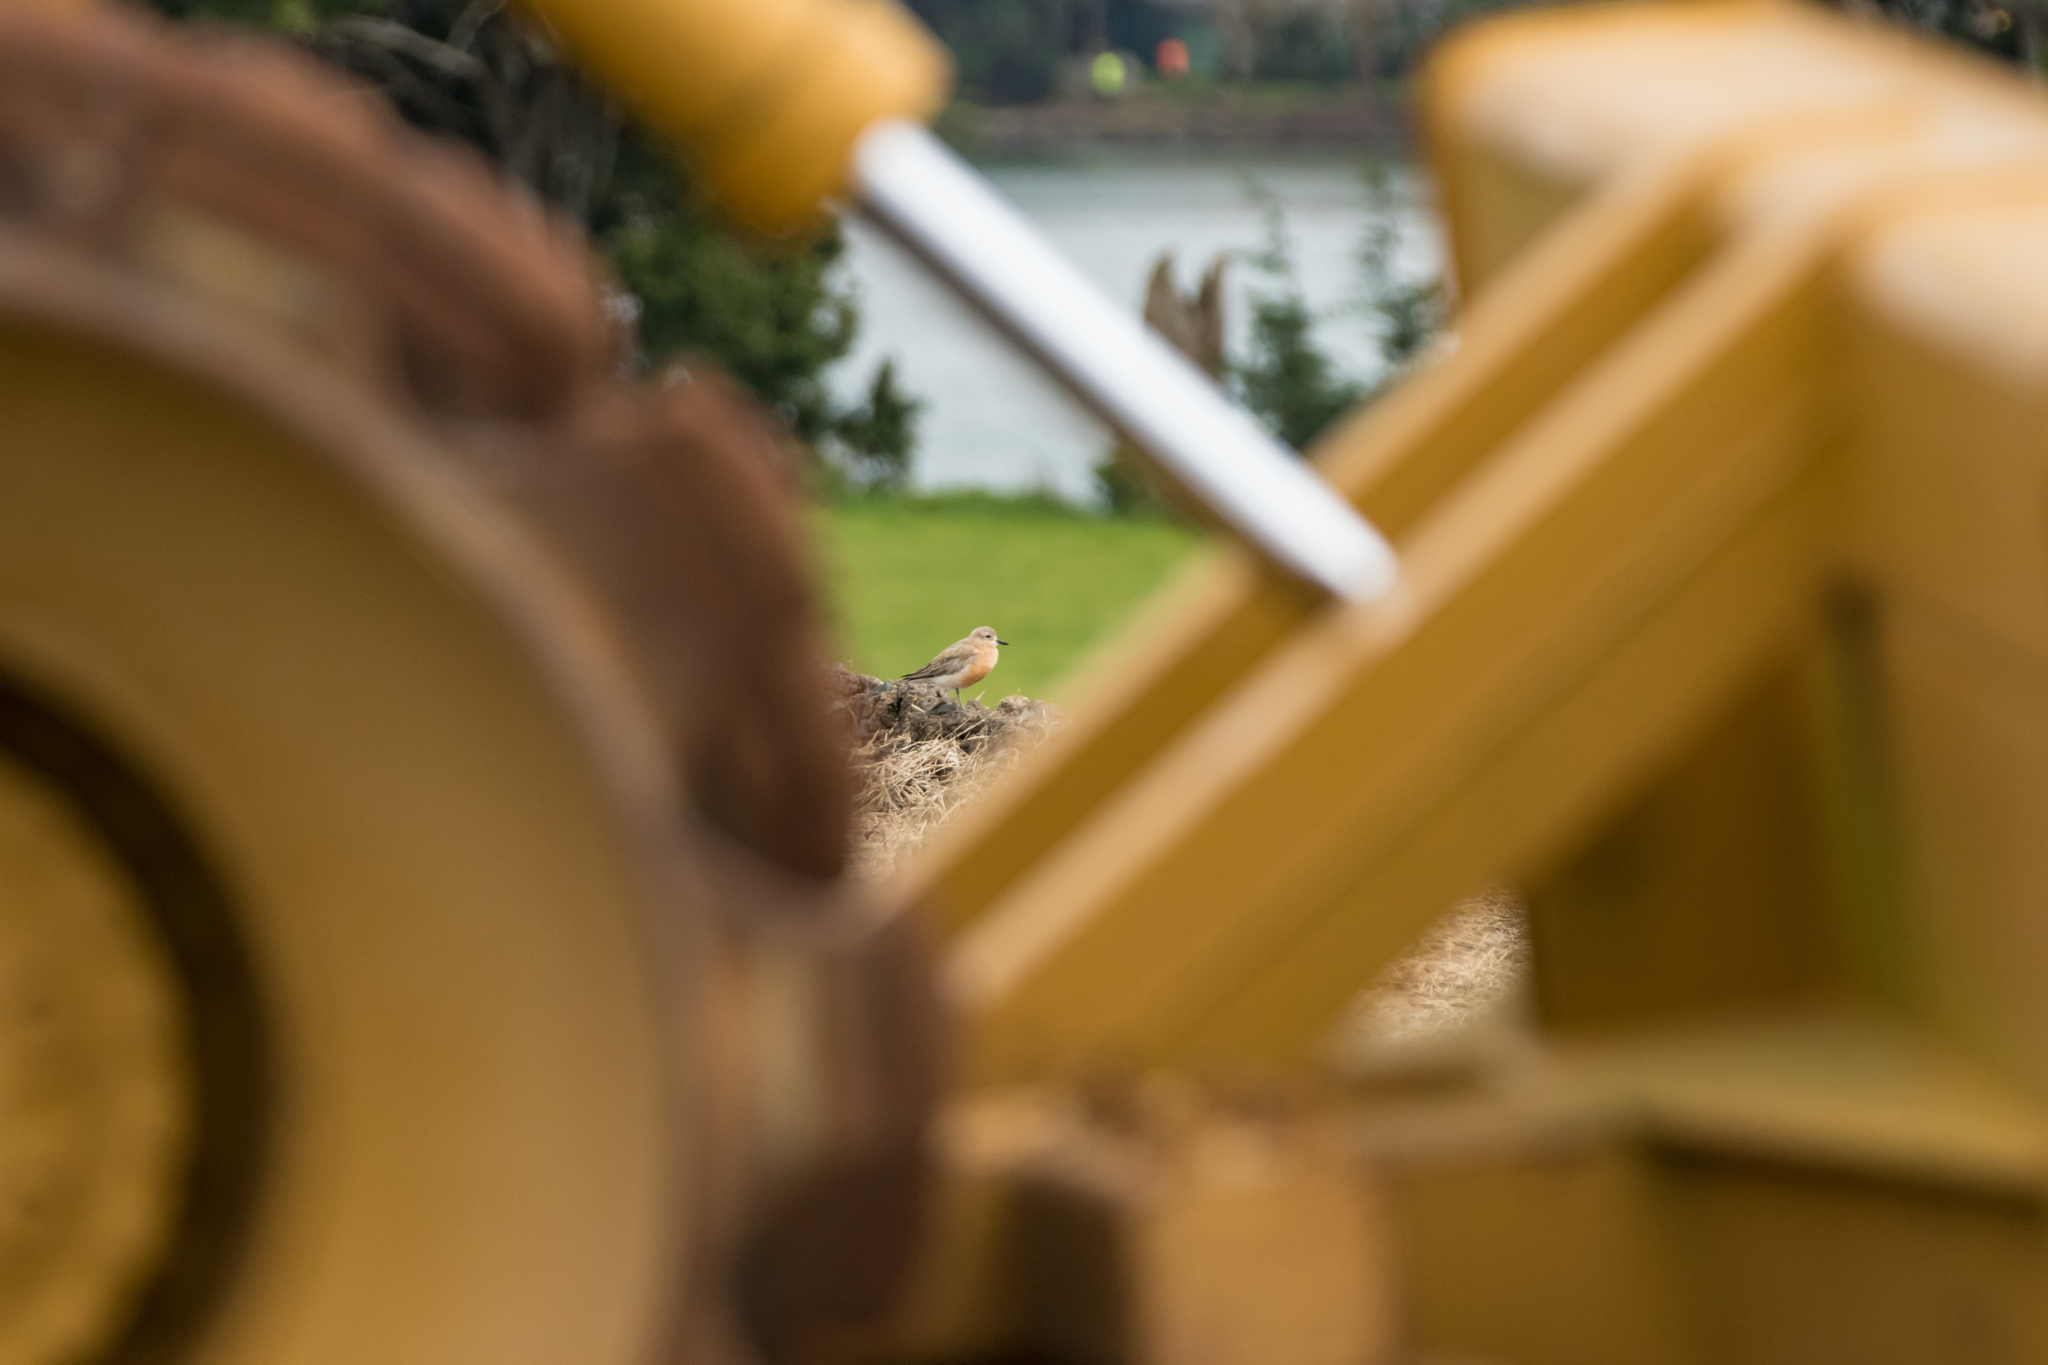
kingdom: Animalia
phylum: Chordata
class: Aves
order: Charadriiformes
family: Charadriidae
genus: Anarhynchus
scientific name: Anarhynchus
